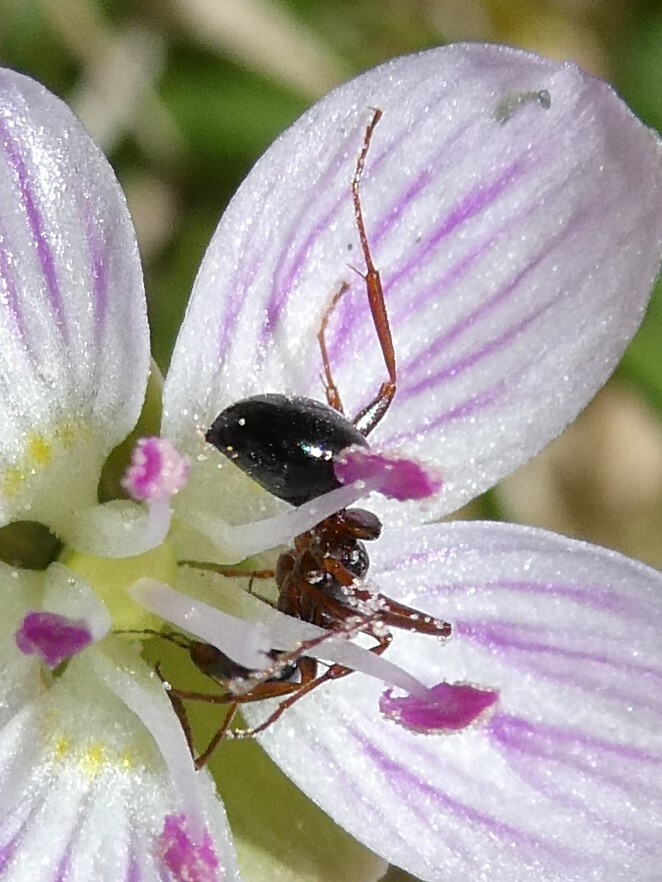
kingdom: Animalia
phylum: Arthropoda
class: Insecta
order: Hymenoptera
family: Formicidae
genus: Formica
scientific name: Formica
